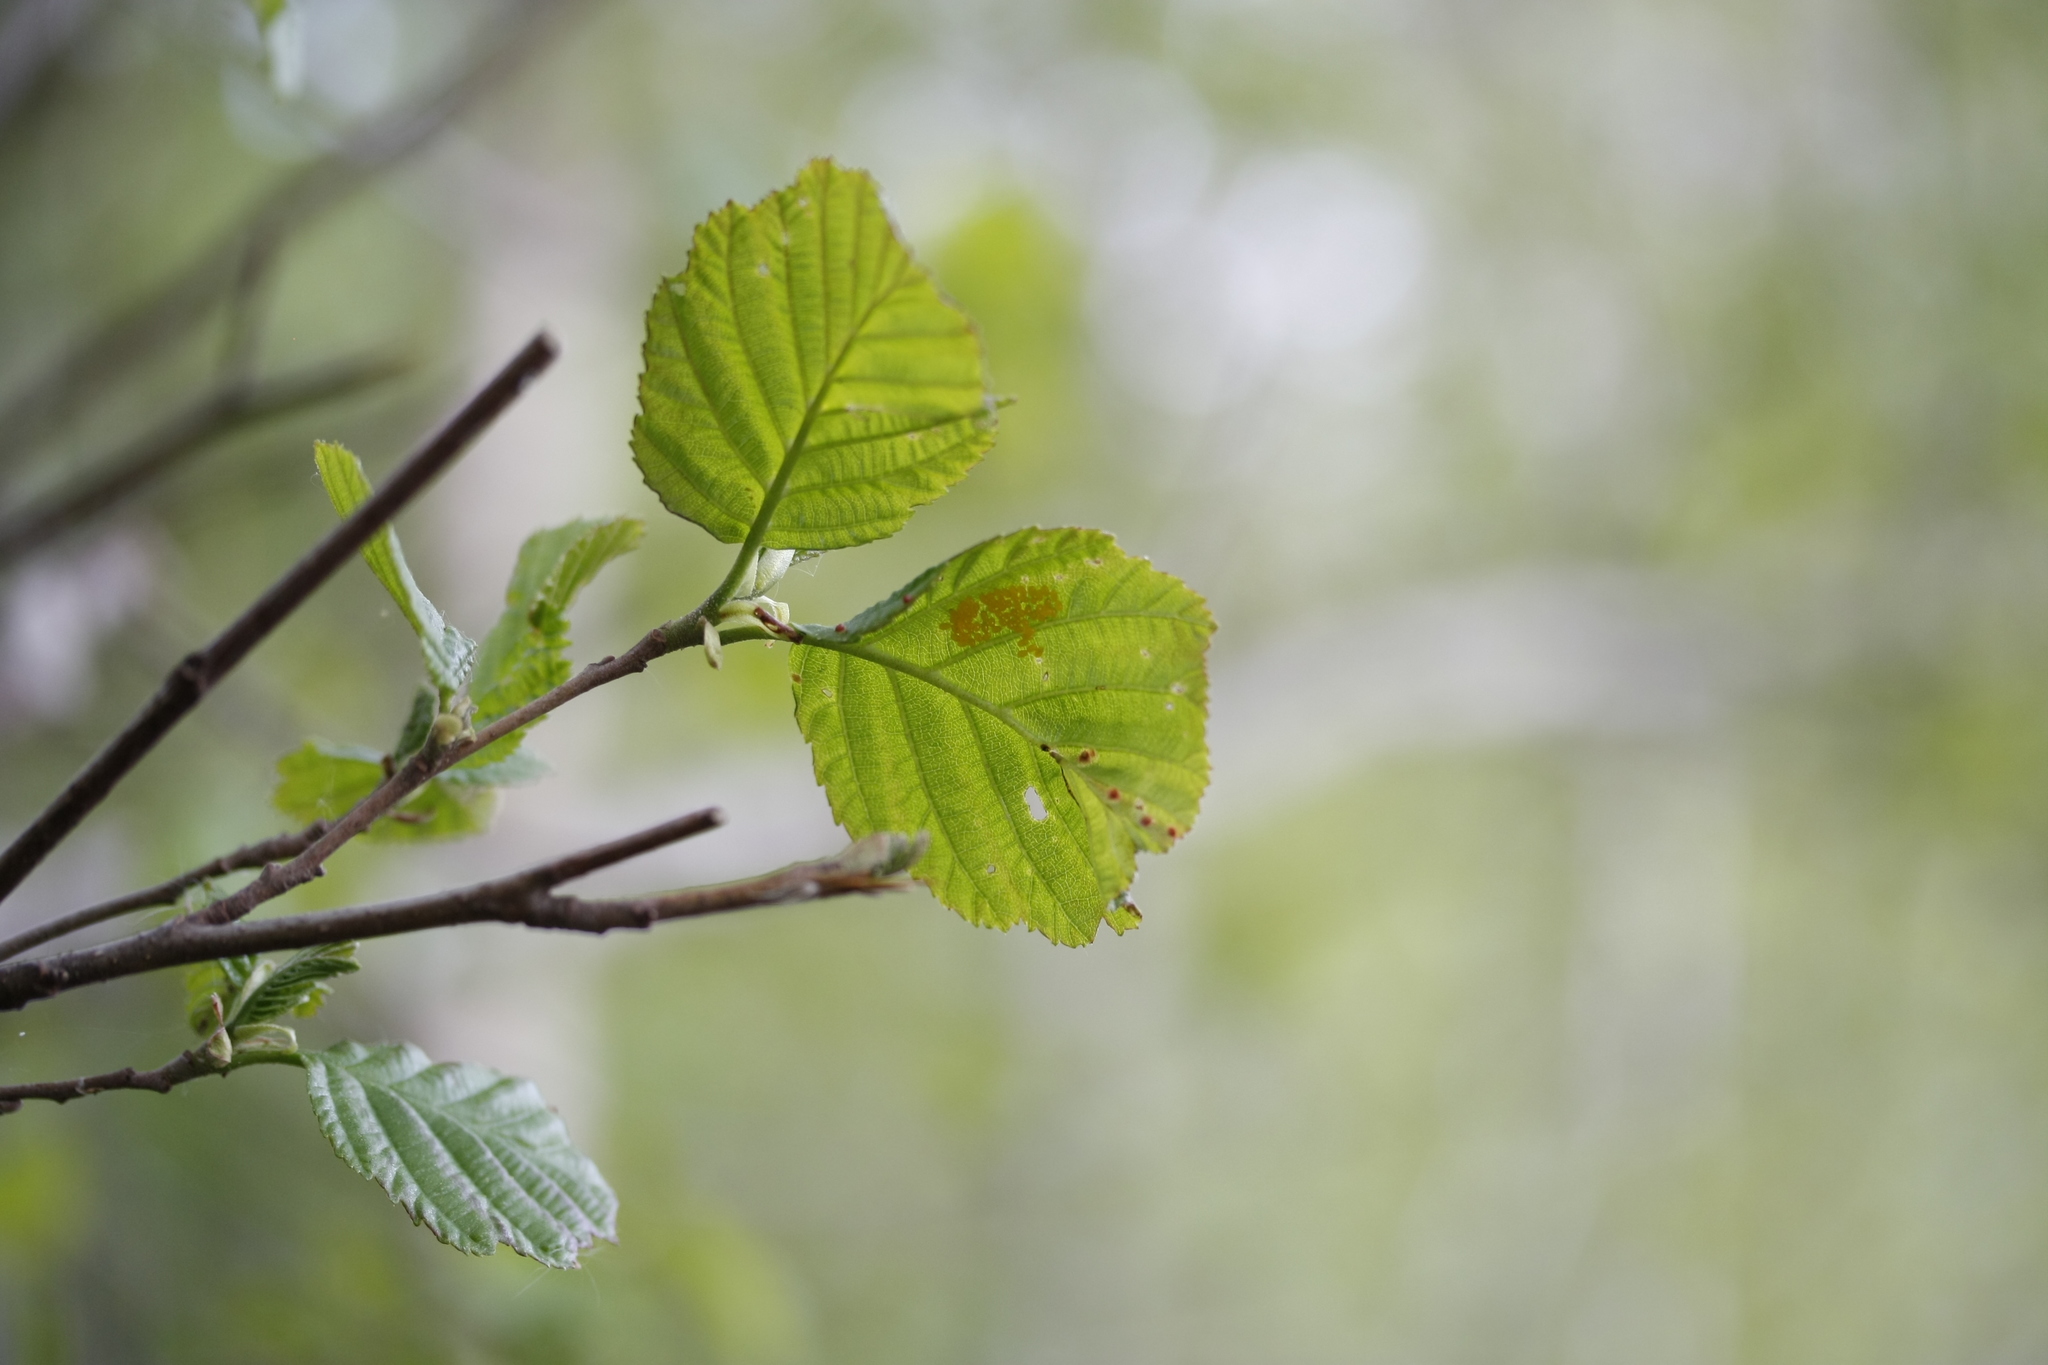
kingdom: Plantae
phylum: Tracheophyta
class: Magnoliopsida
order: Fagales
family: Betulaceae
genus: Alnus
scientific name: Alnus glutinosa
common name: Black alder
